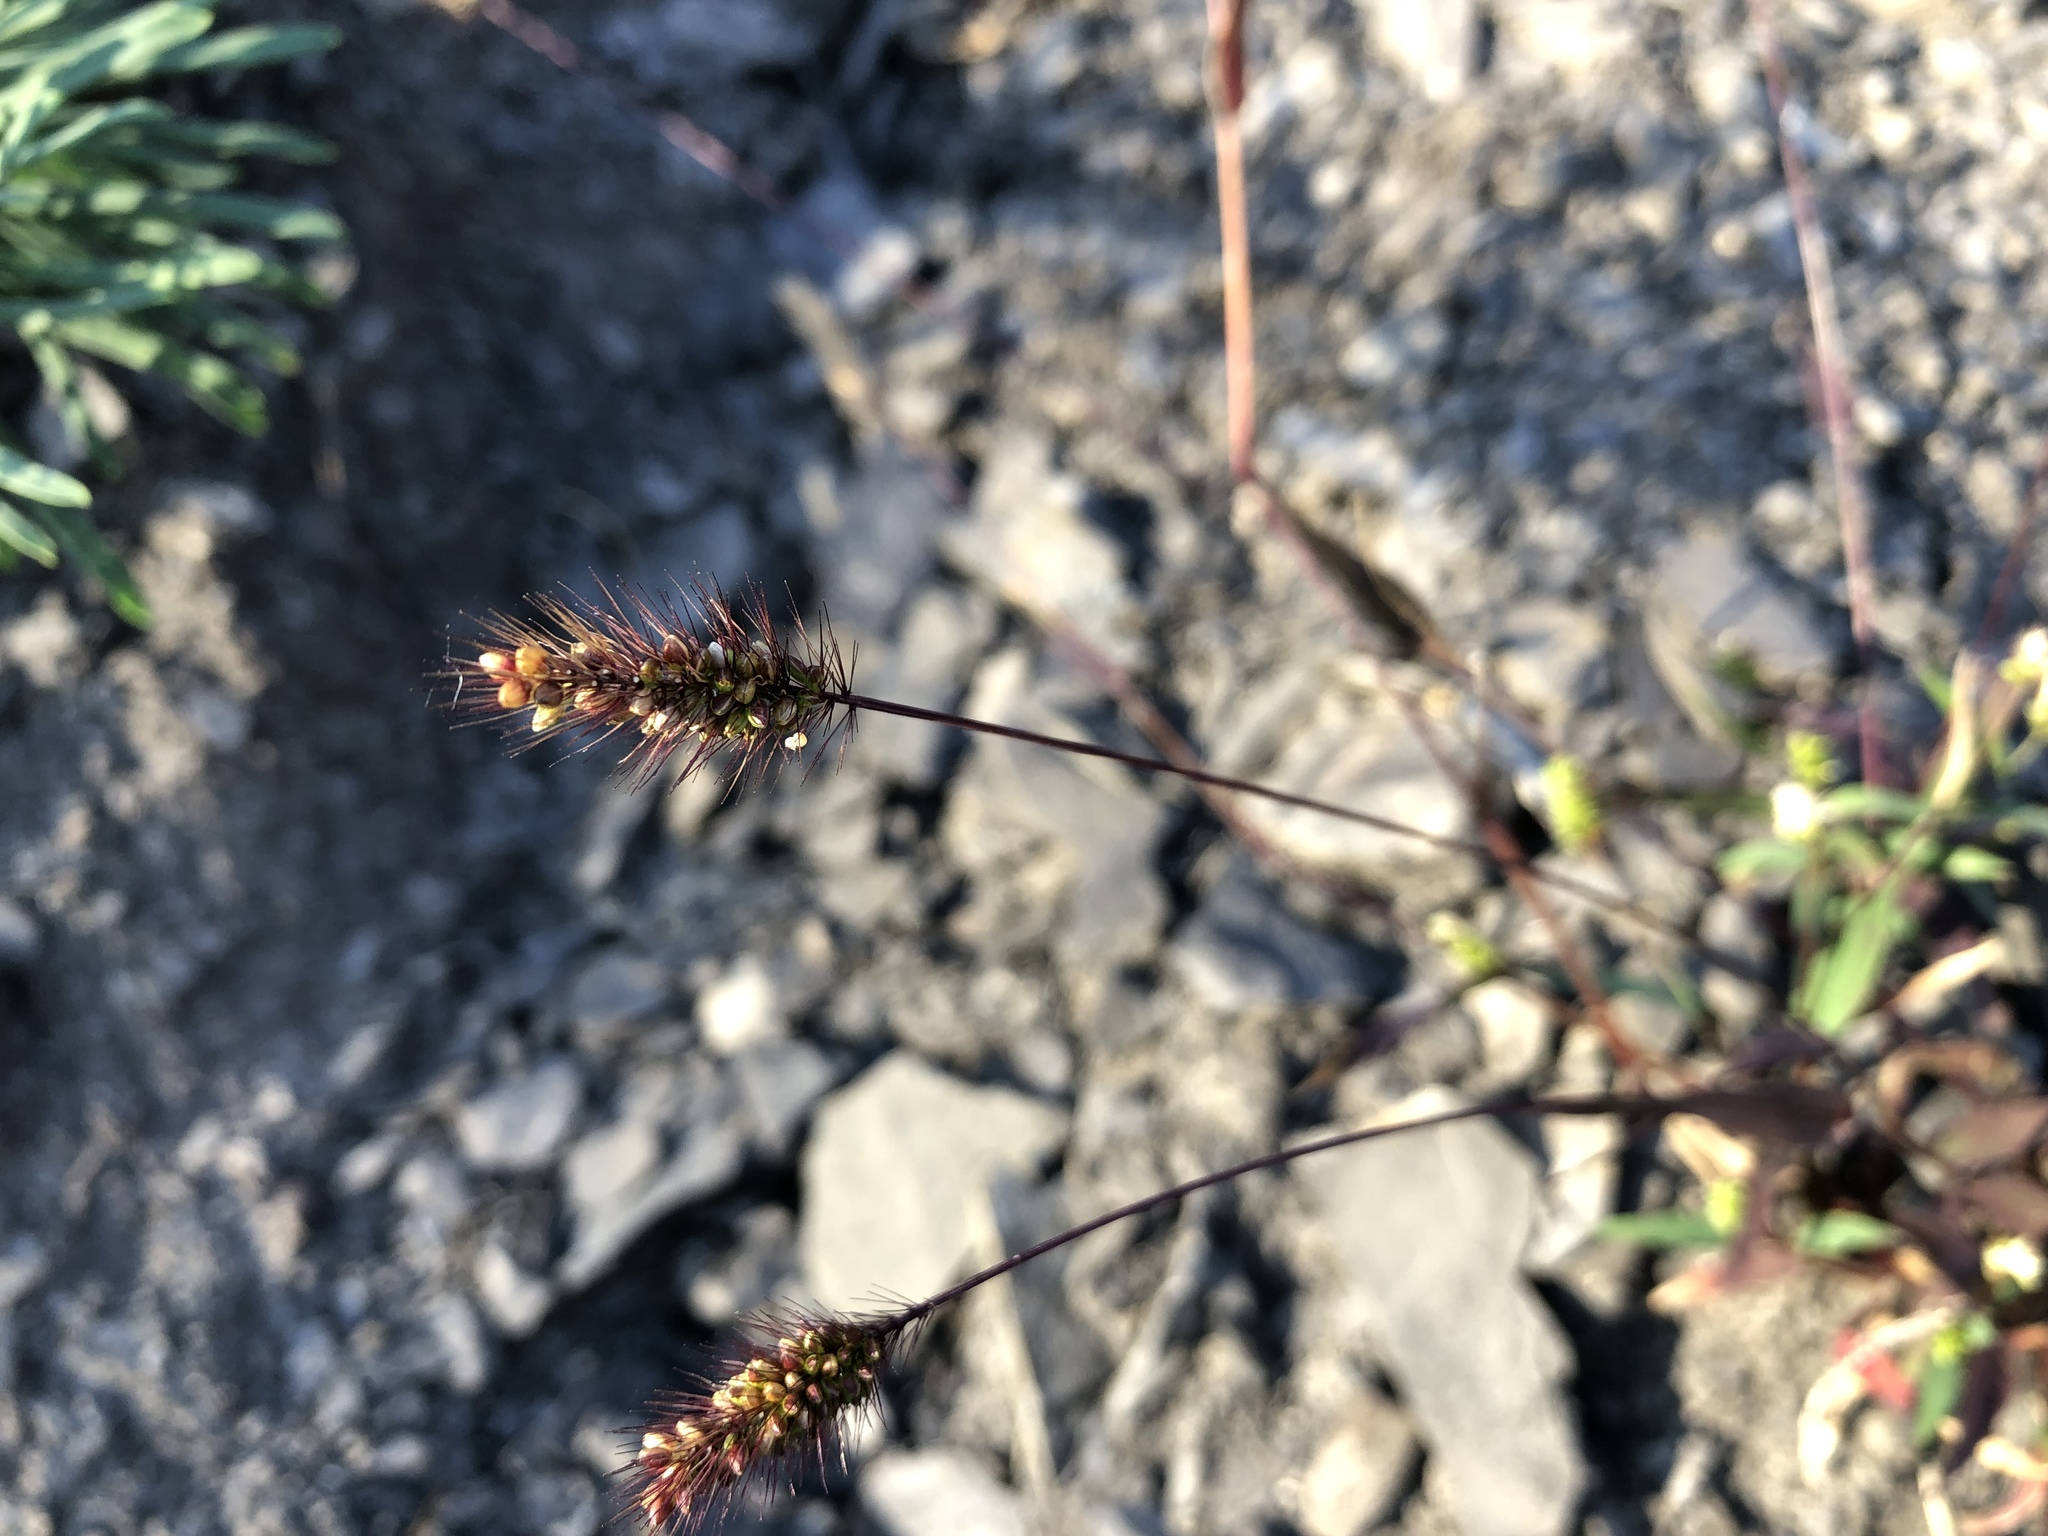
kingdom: Plantae
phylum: Tracheophyta
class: Liliopsida
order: Poales
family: Poaceae
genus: Setaria
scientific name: Setaria viridis
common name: Green bristlegrass
